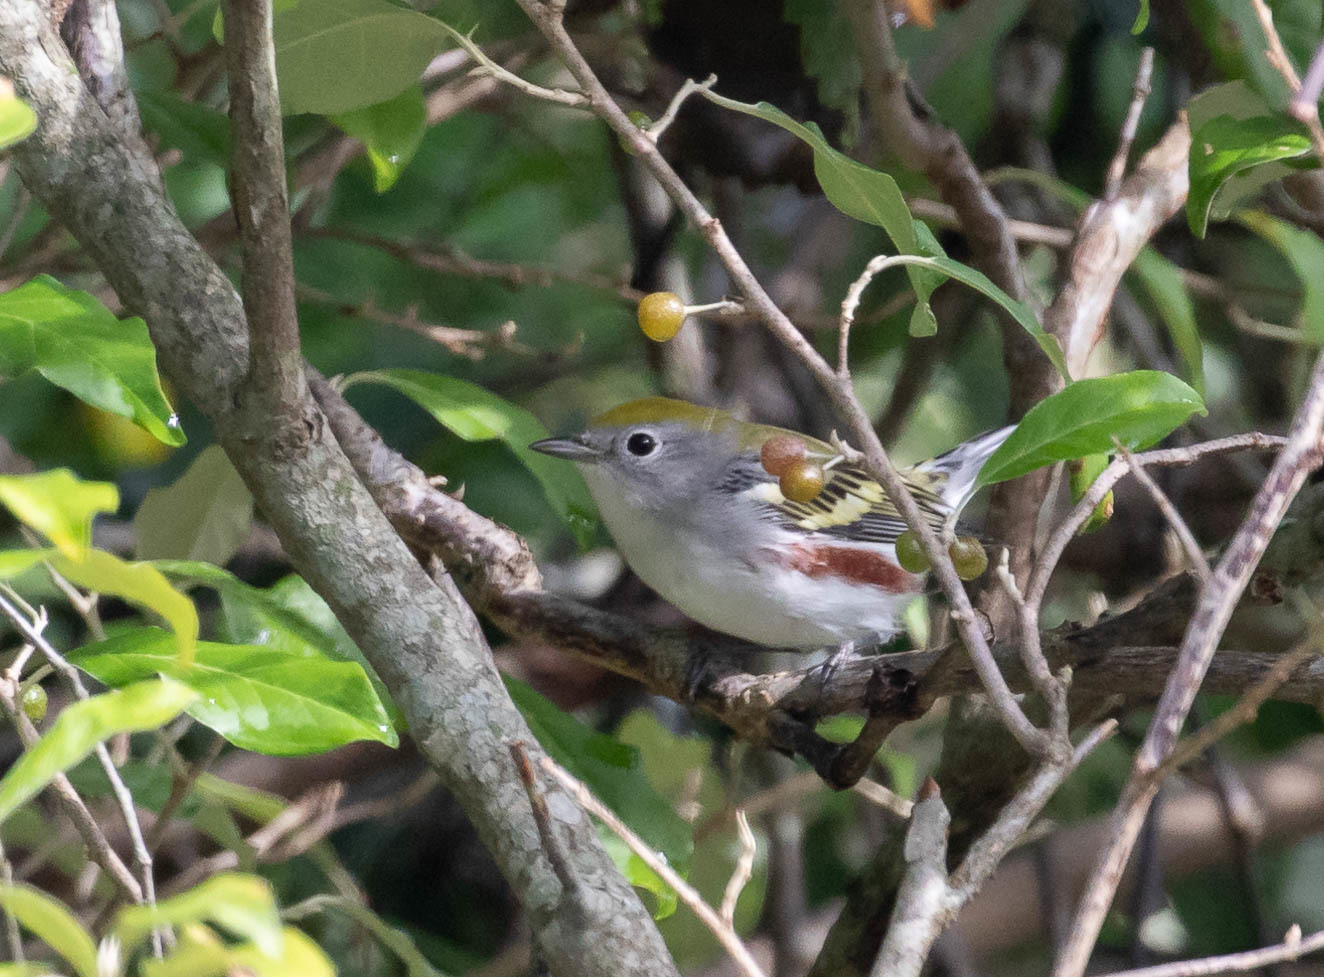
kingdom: Animalia
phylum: Chordata
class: Aves
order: Passeriformes
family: Parulidae
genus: Setophaga
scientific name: Setophaga pensylvanica
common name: Chestnut-sided warbler
